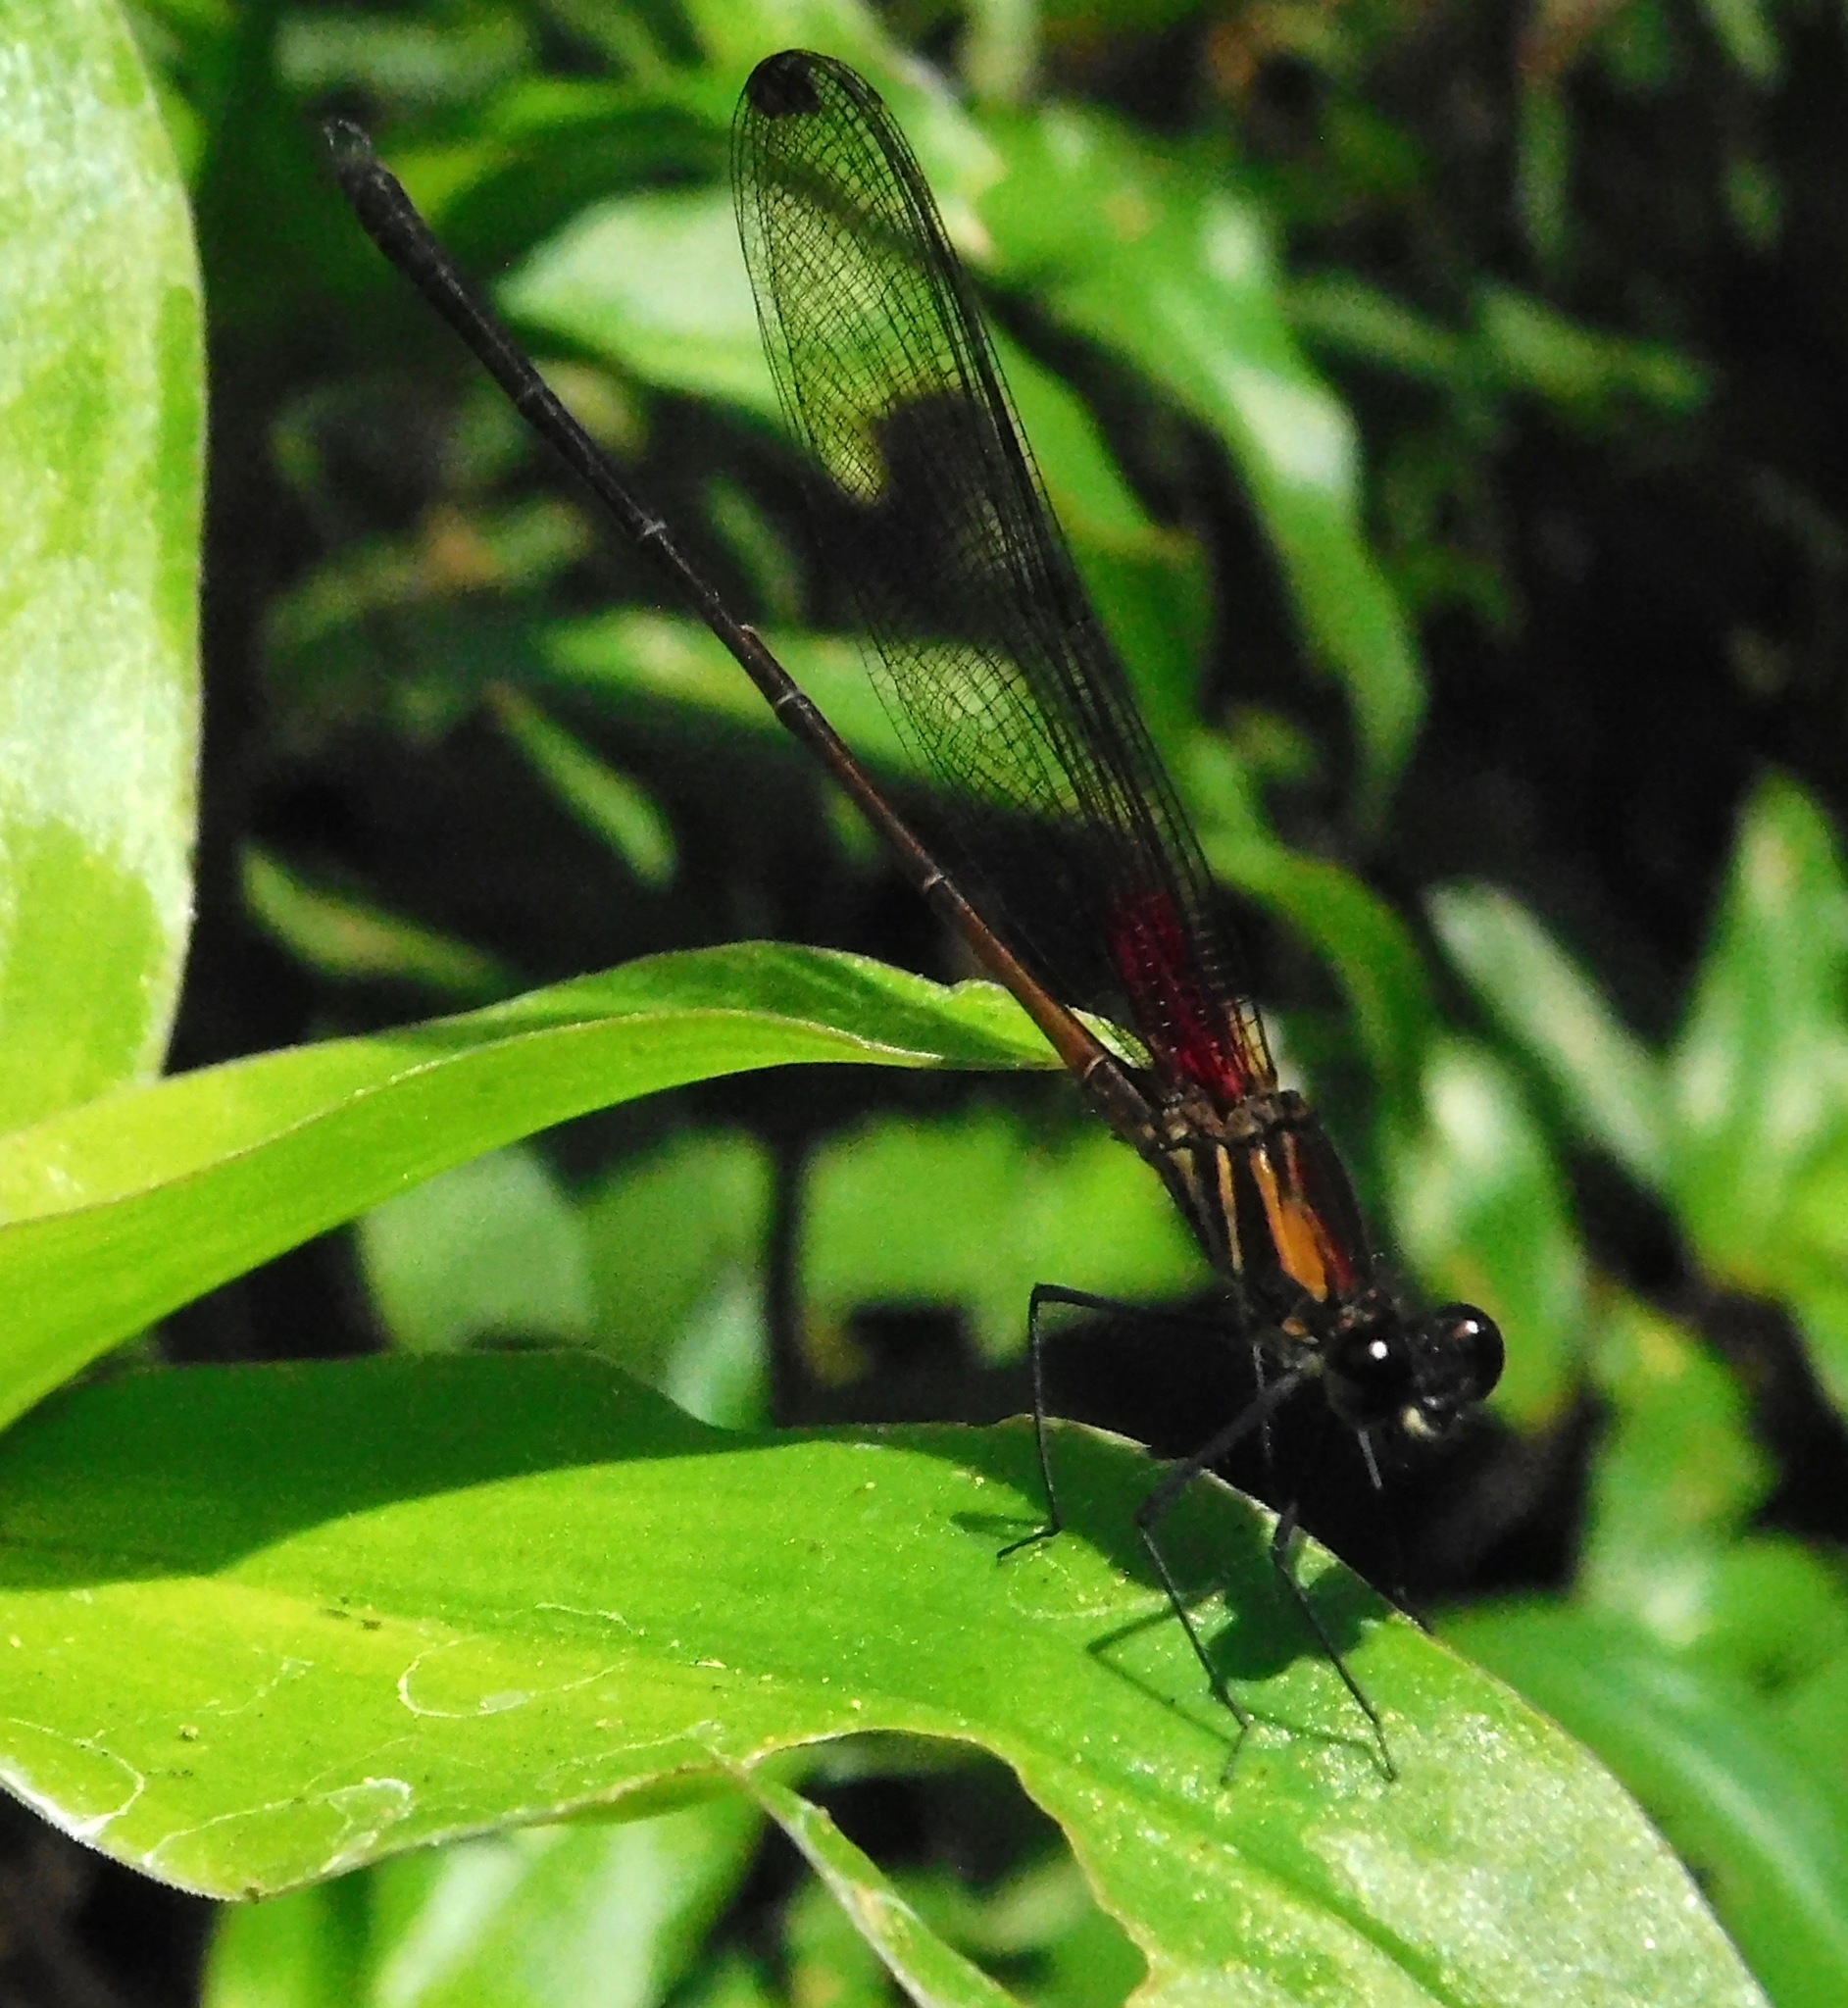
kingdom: Animalia
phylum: Arthropoda
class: Insecta
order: Odonata
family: Calopterygidae
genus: Hetaerina
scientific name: Hetaerina occisa
